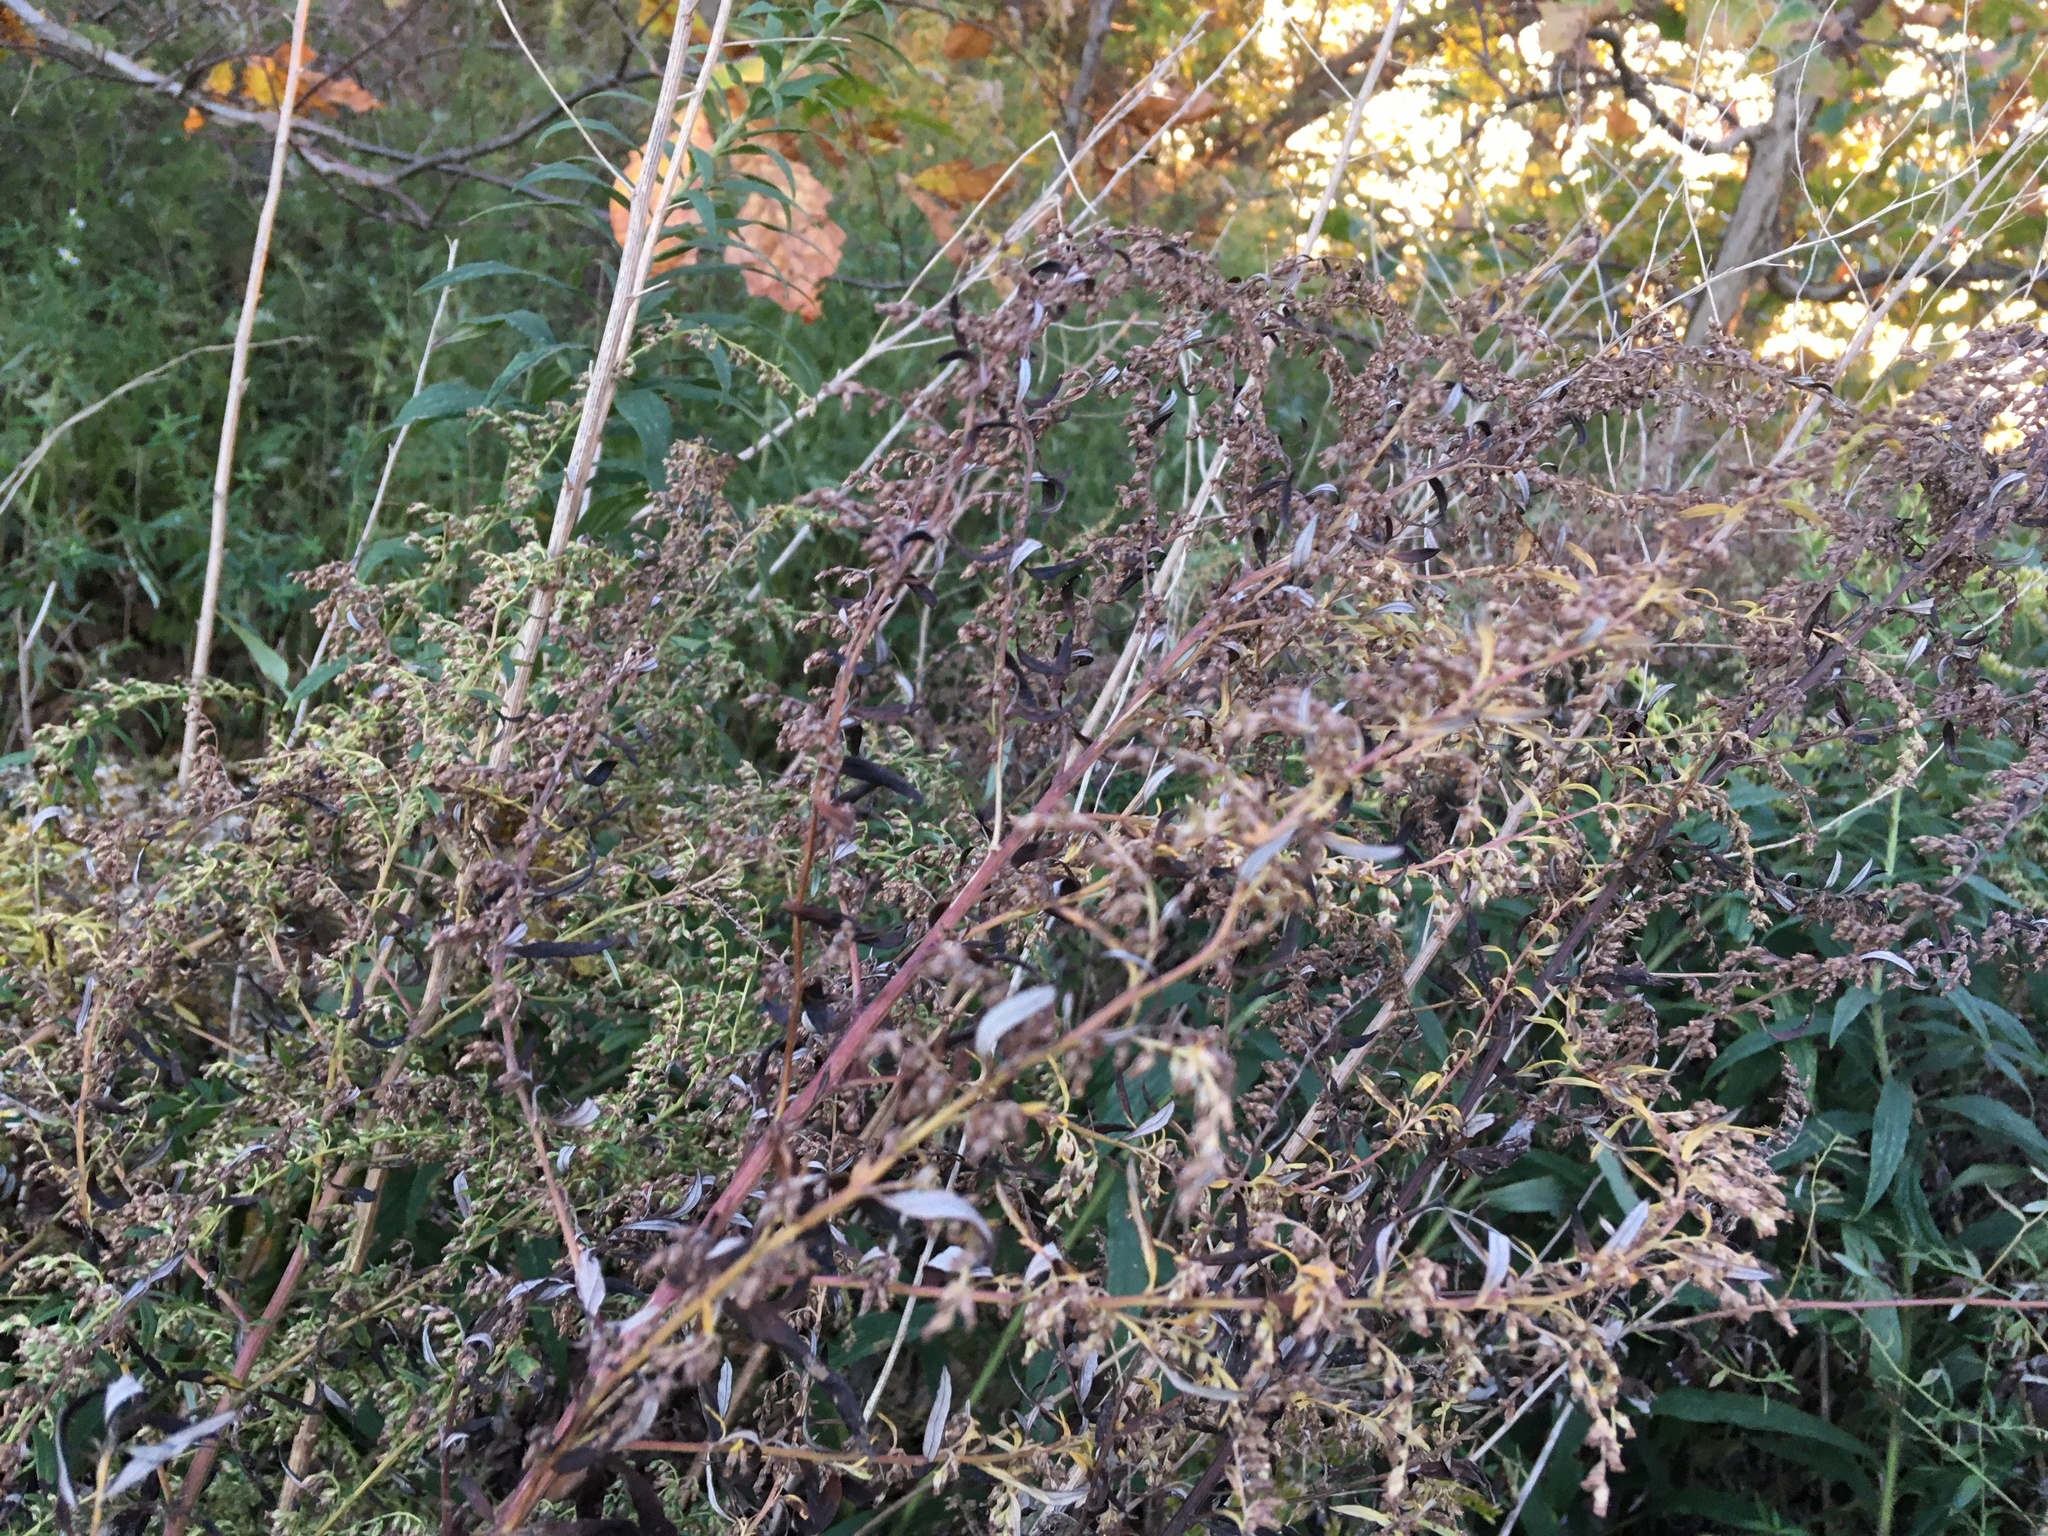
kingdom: Plantae
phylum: Tracheophyta
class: Magnoliopsida
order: Asterales
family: Asteraceae
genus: Artemisia
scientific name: Artemisia vulgaris
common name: Mugwort
